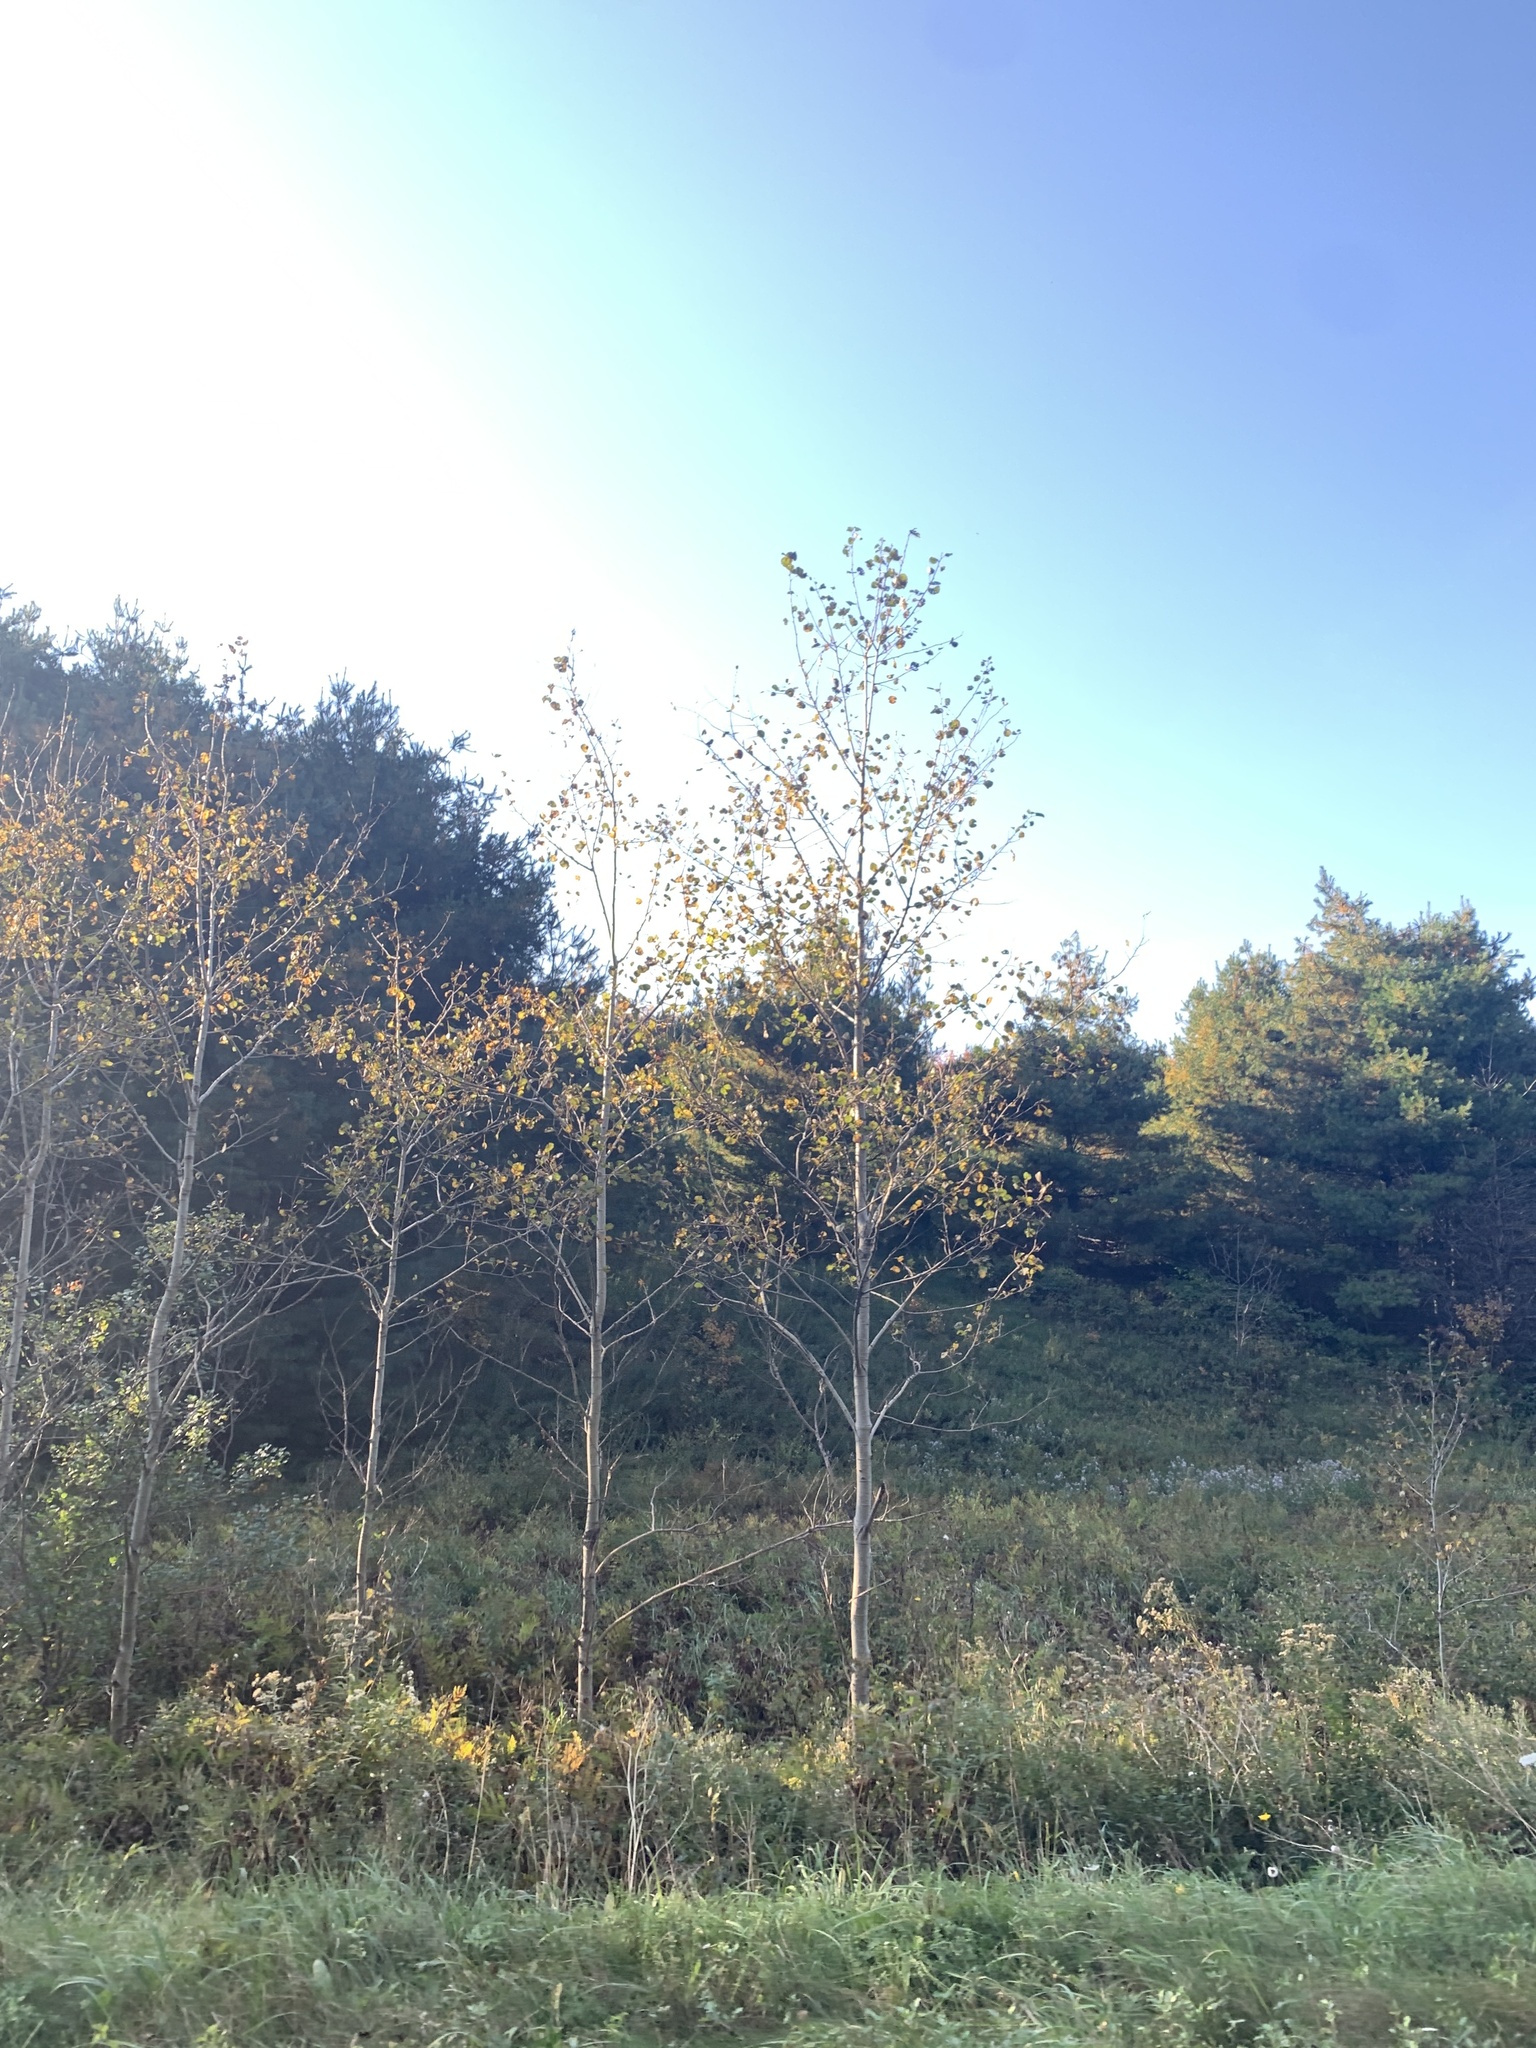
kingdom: Plantae
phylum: Tracheophyta
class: Magnoliopsida
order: Malpighiales
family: Salicaceae
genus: Populus
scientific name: Populus tremuloides
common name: Quaking aspen
